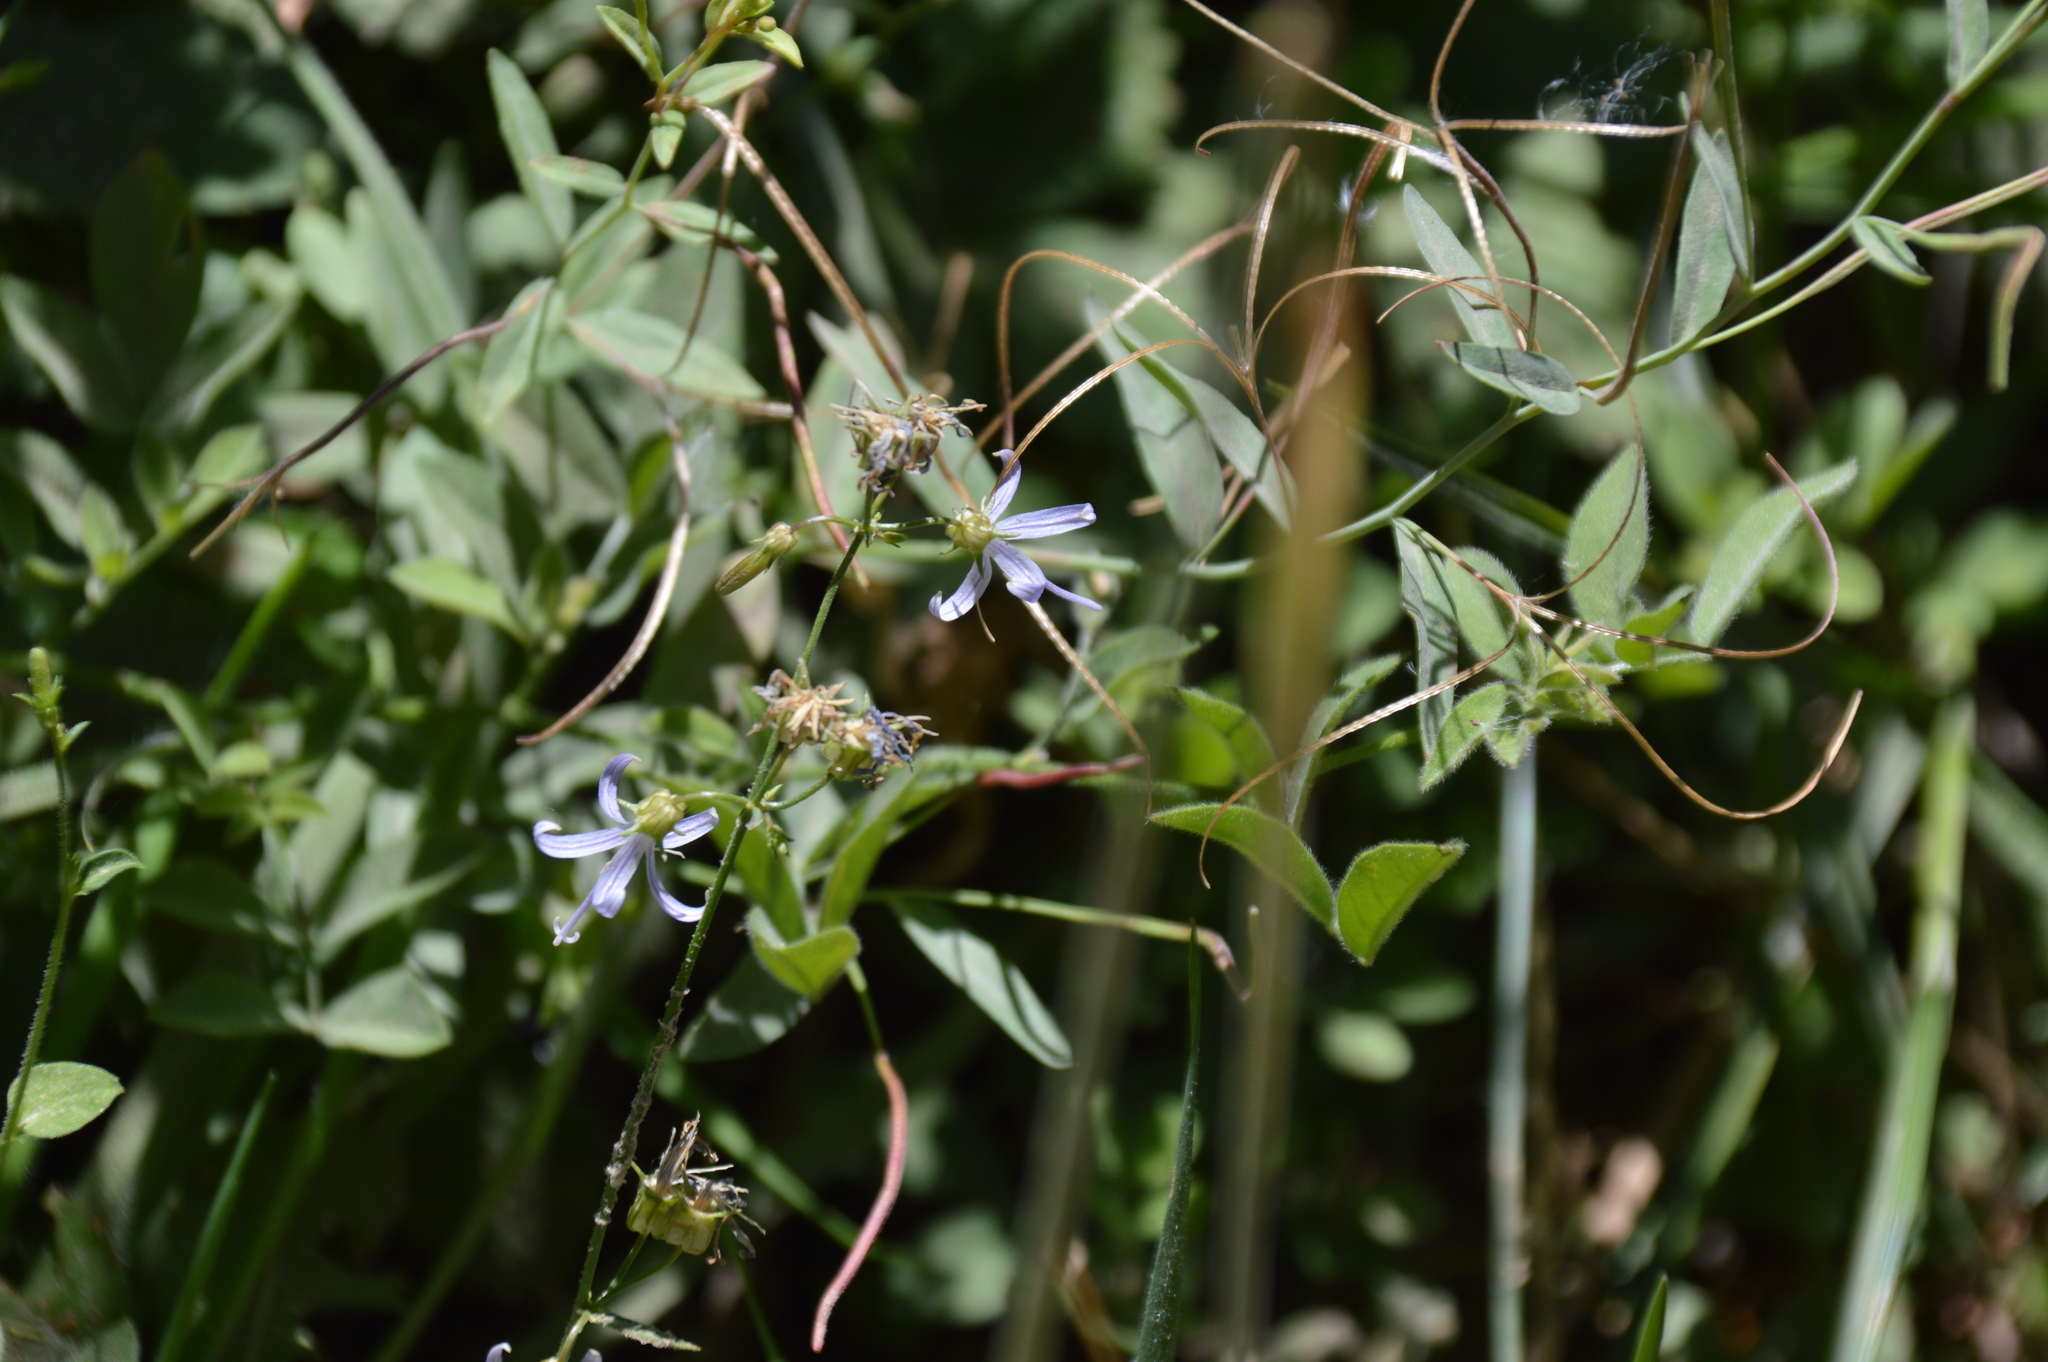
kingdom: Plantae
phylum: Tracheophyta
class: Magnoliopsida
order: Asterales
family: Campanulaceae
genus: Smithiastrum
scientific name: Smithiastrum prenanthoides
